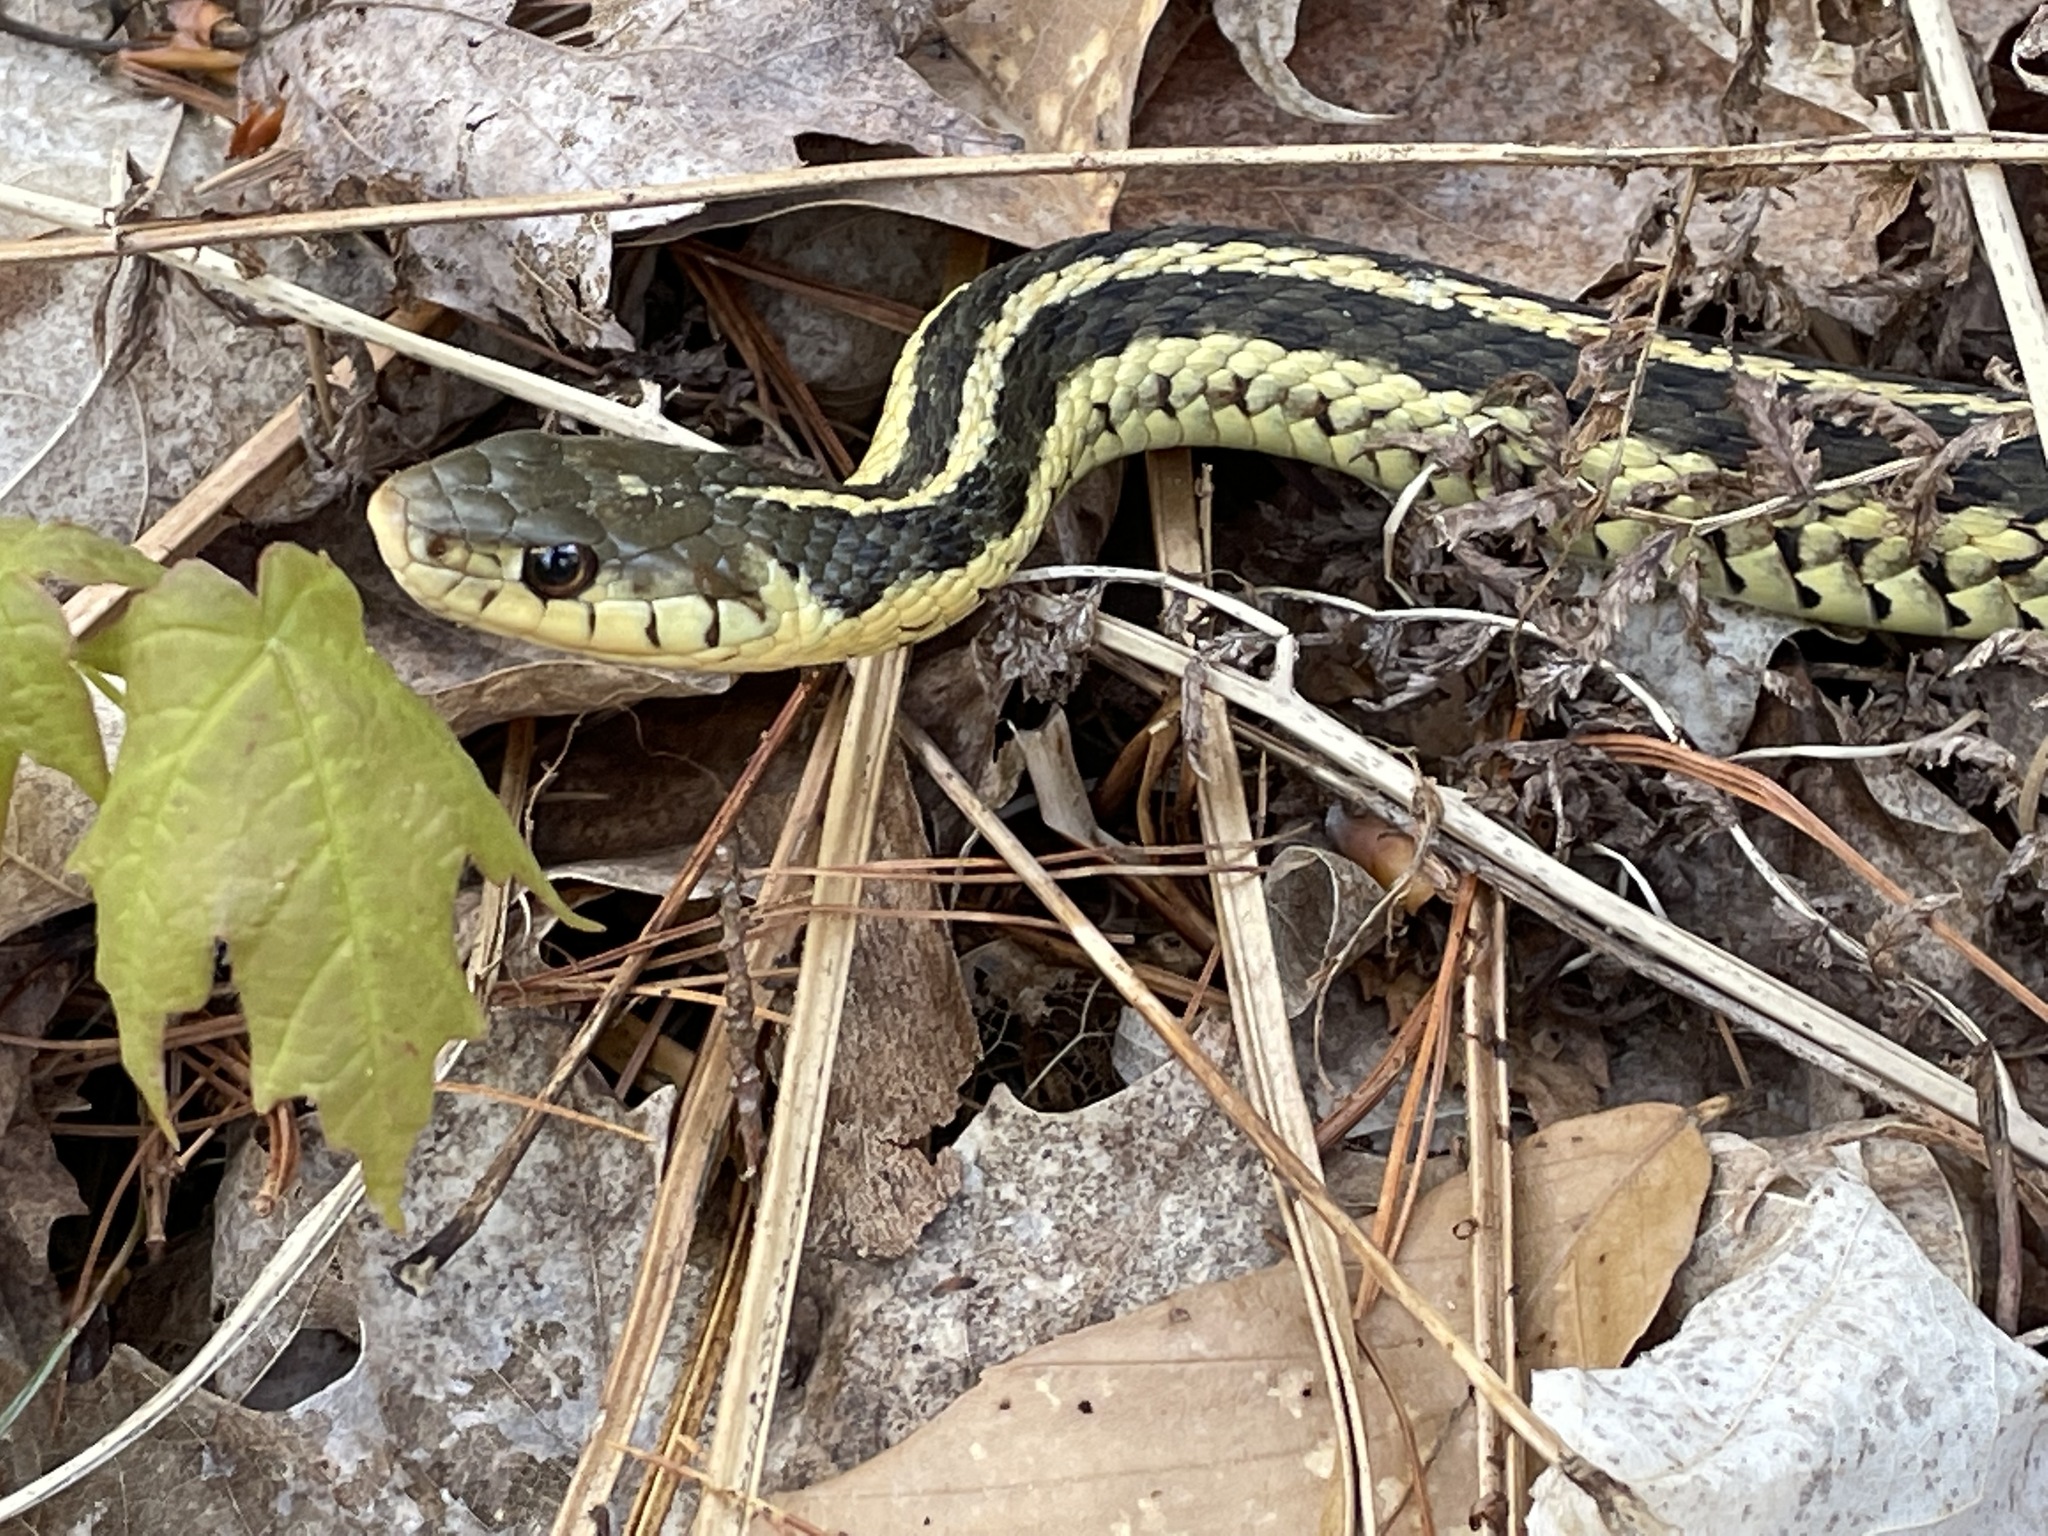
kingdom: Animalia
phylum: Chordata
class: Squamata
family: Colubridae
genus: Thamnophis
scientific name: Thamnophis sirtalis
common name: Common garter snake
